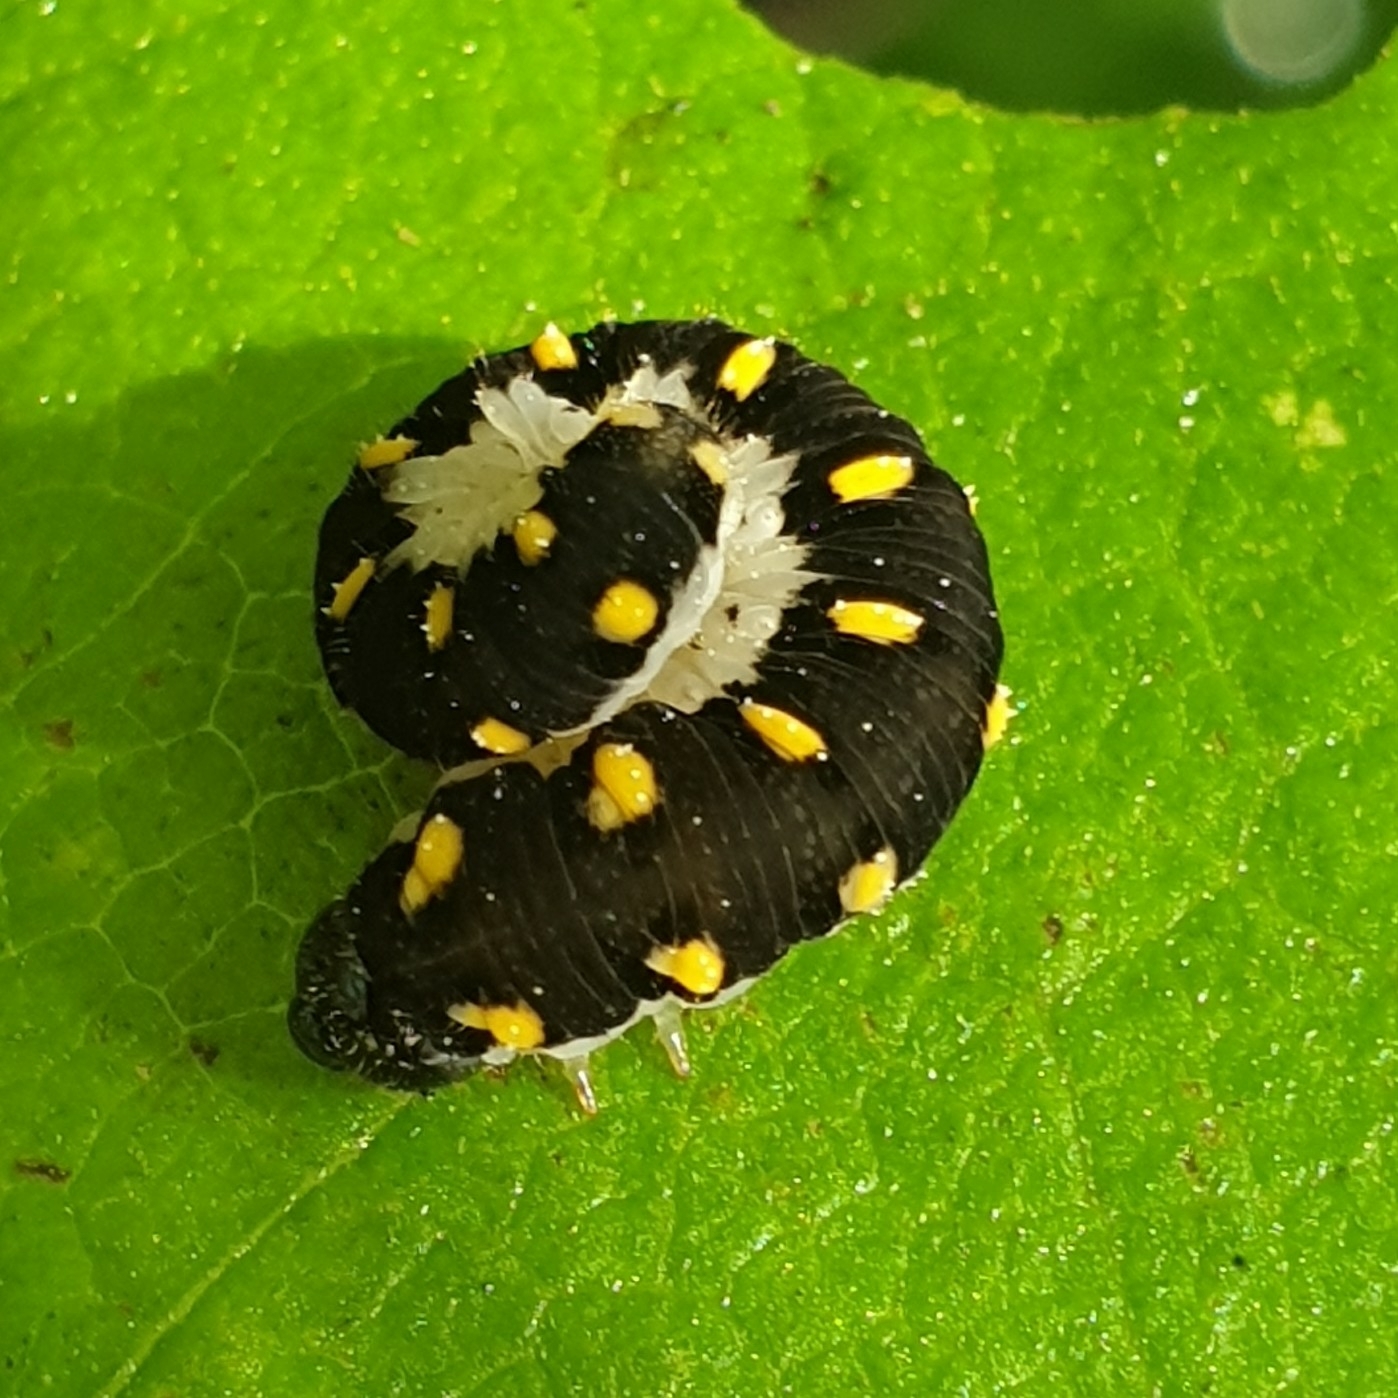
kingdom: Animalia
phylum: Arthropoda
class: Insecta
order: Hymenoptera
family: Tenthredinidae
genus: Tenthredo
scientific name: Tenthredo mandibularis
